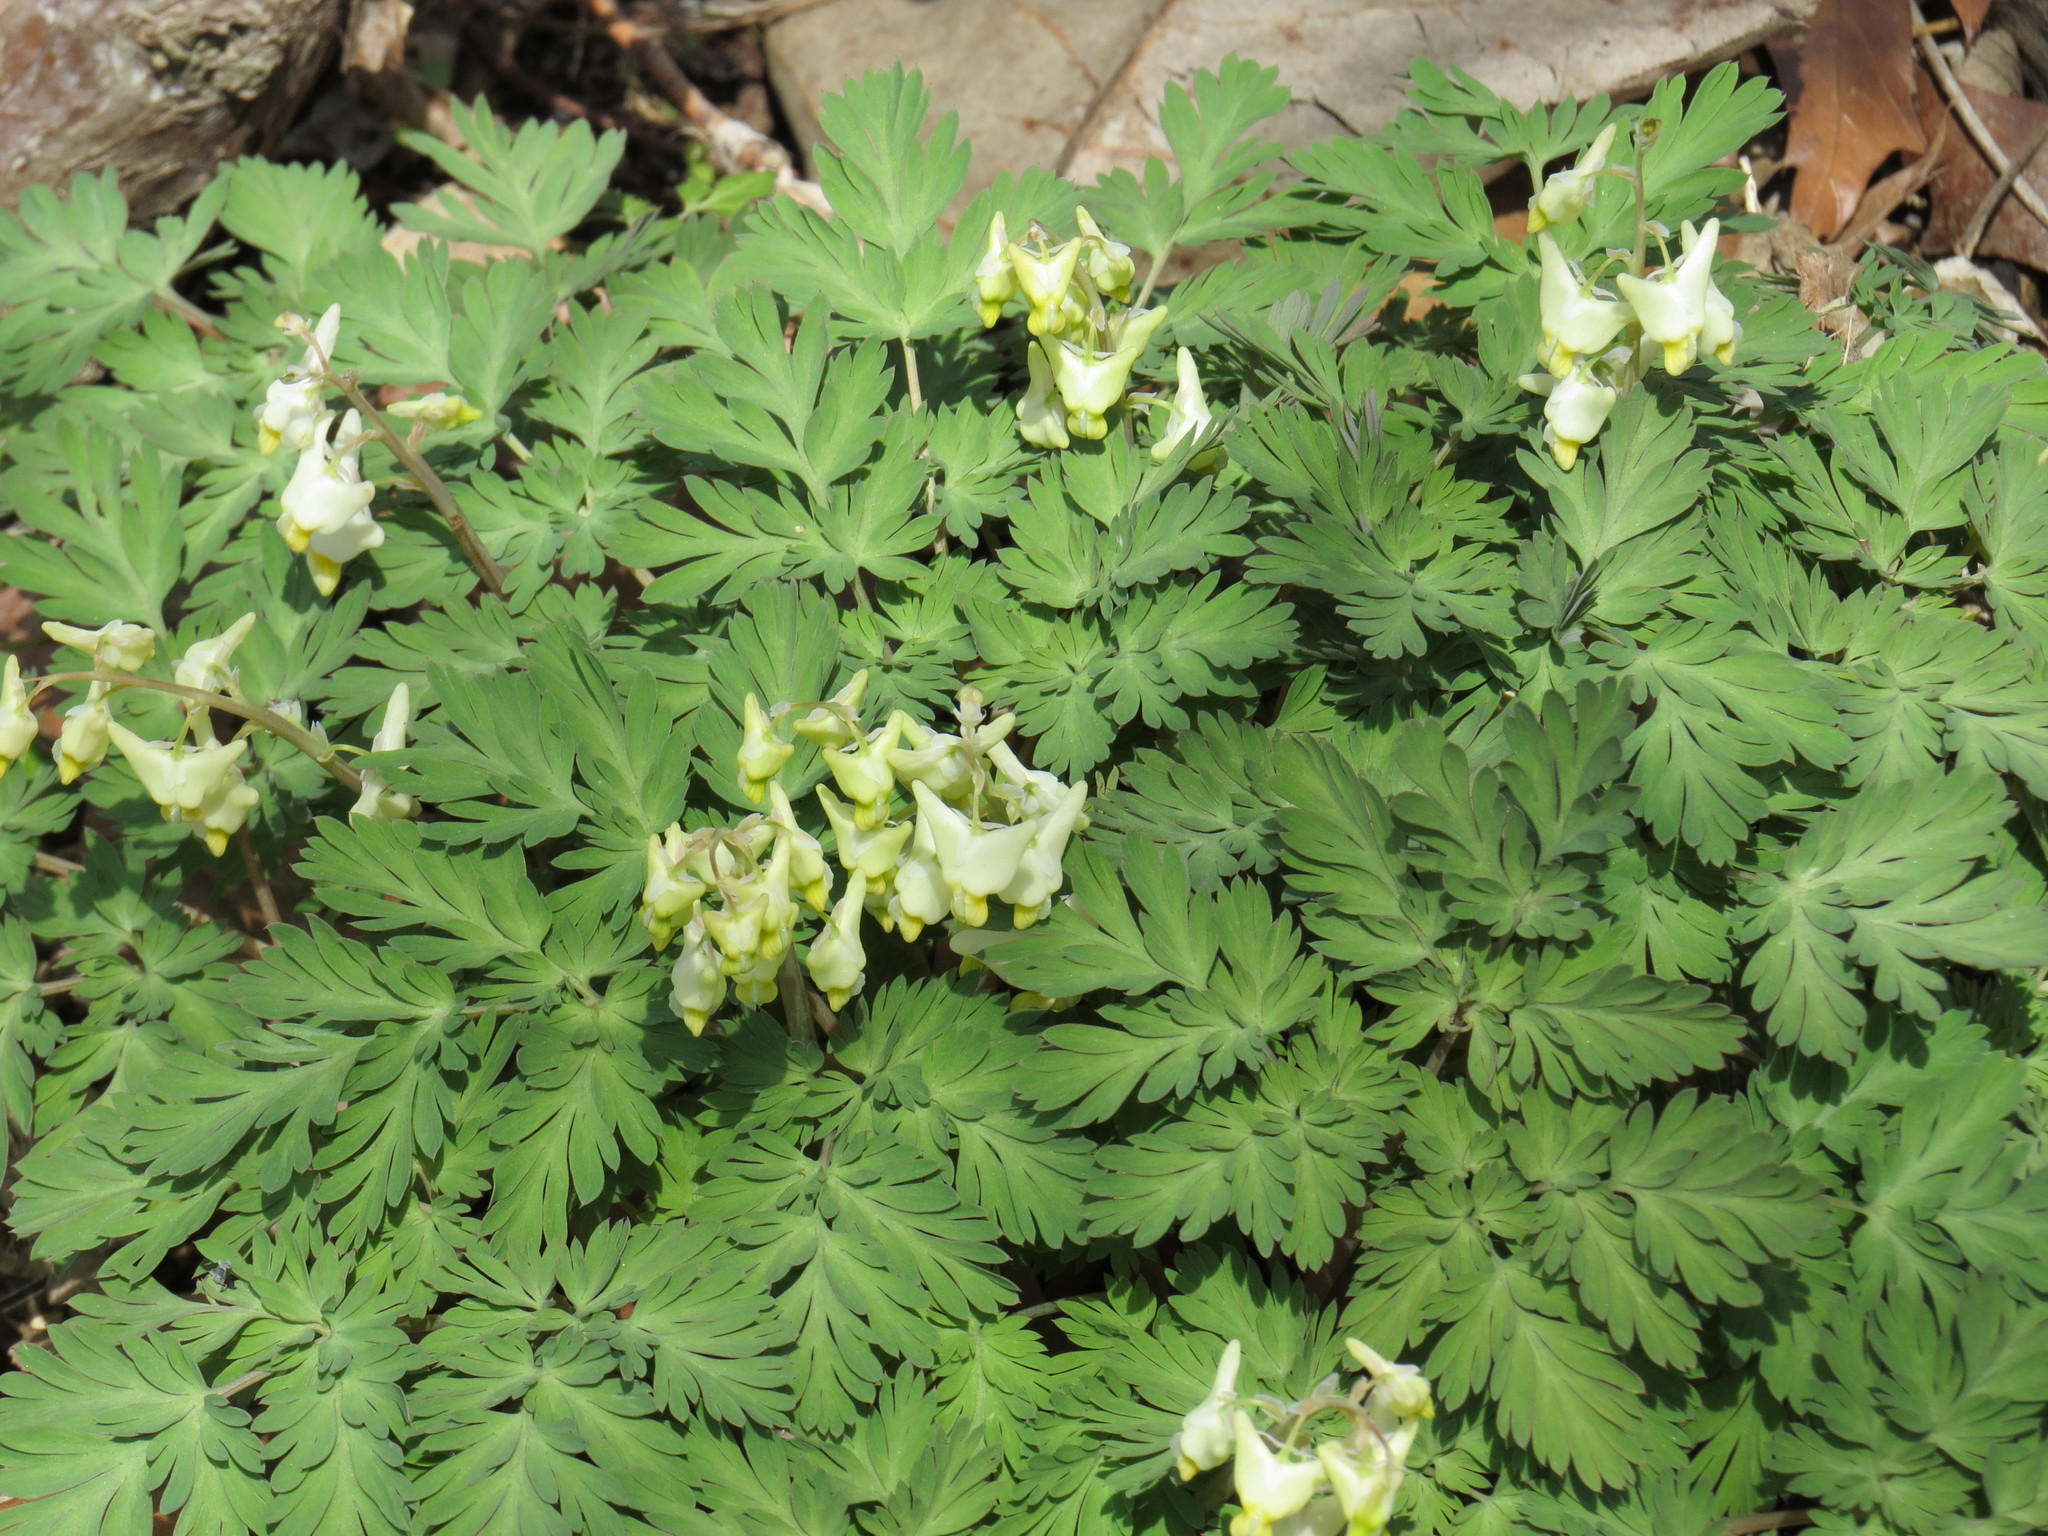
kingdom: Plantae
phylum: Tracheophyta
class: Magnoliopsida
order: Ranunculales
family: Papaveraceae
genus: Dicentra
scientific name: Dicentra cucullaria
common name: Dutchman's breeches
